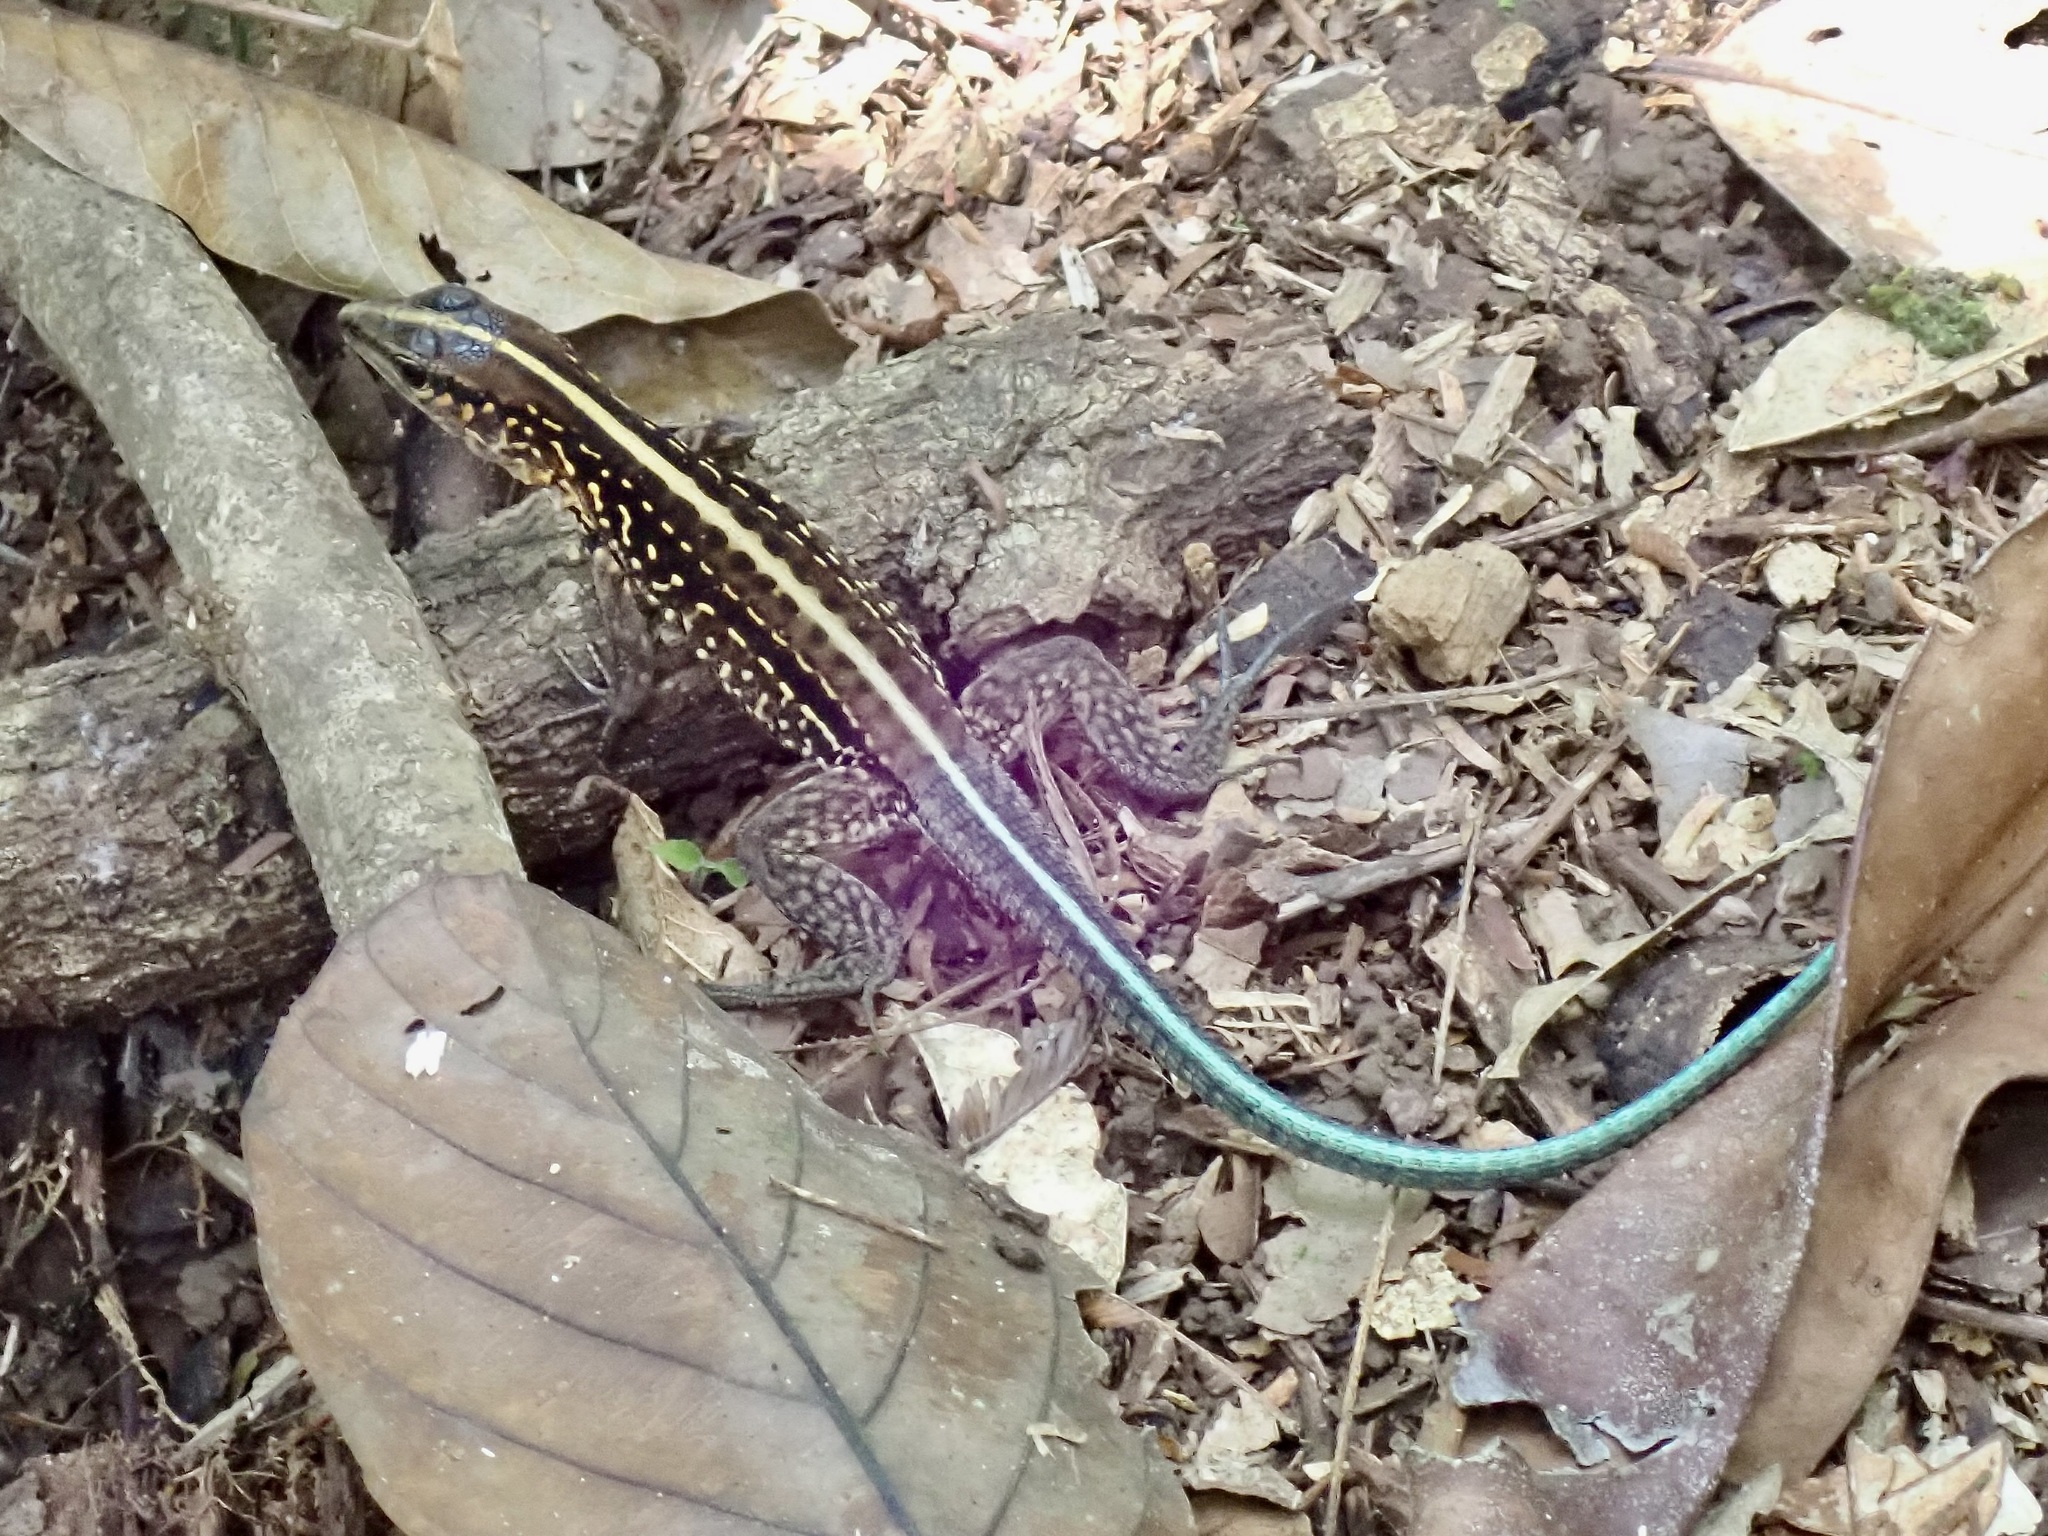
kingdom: Animalia
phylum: Chordata
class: Squamata
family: Teiidae
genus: Holcosus
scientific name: Holcosus festivus
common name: Middle american ameiva
